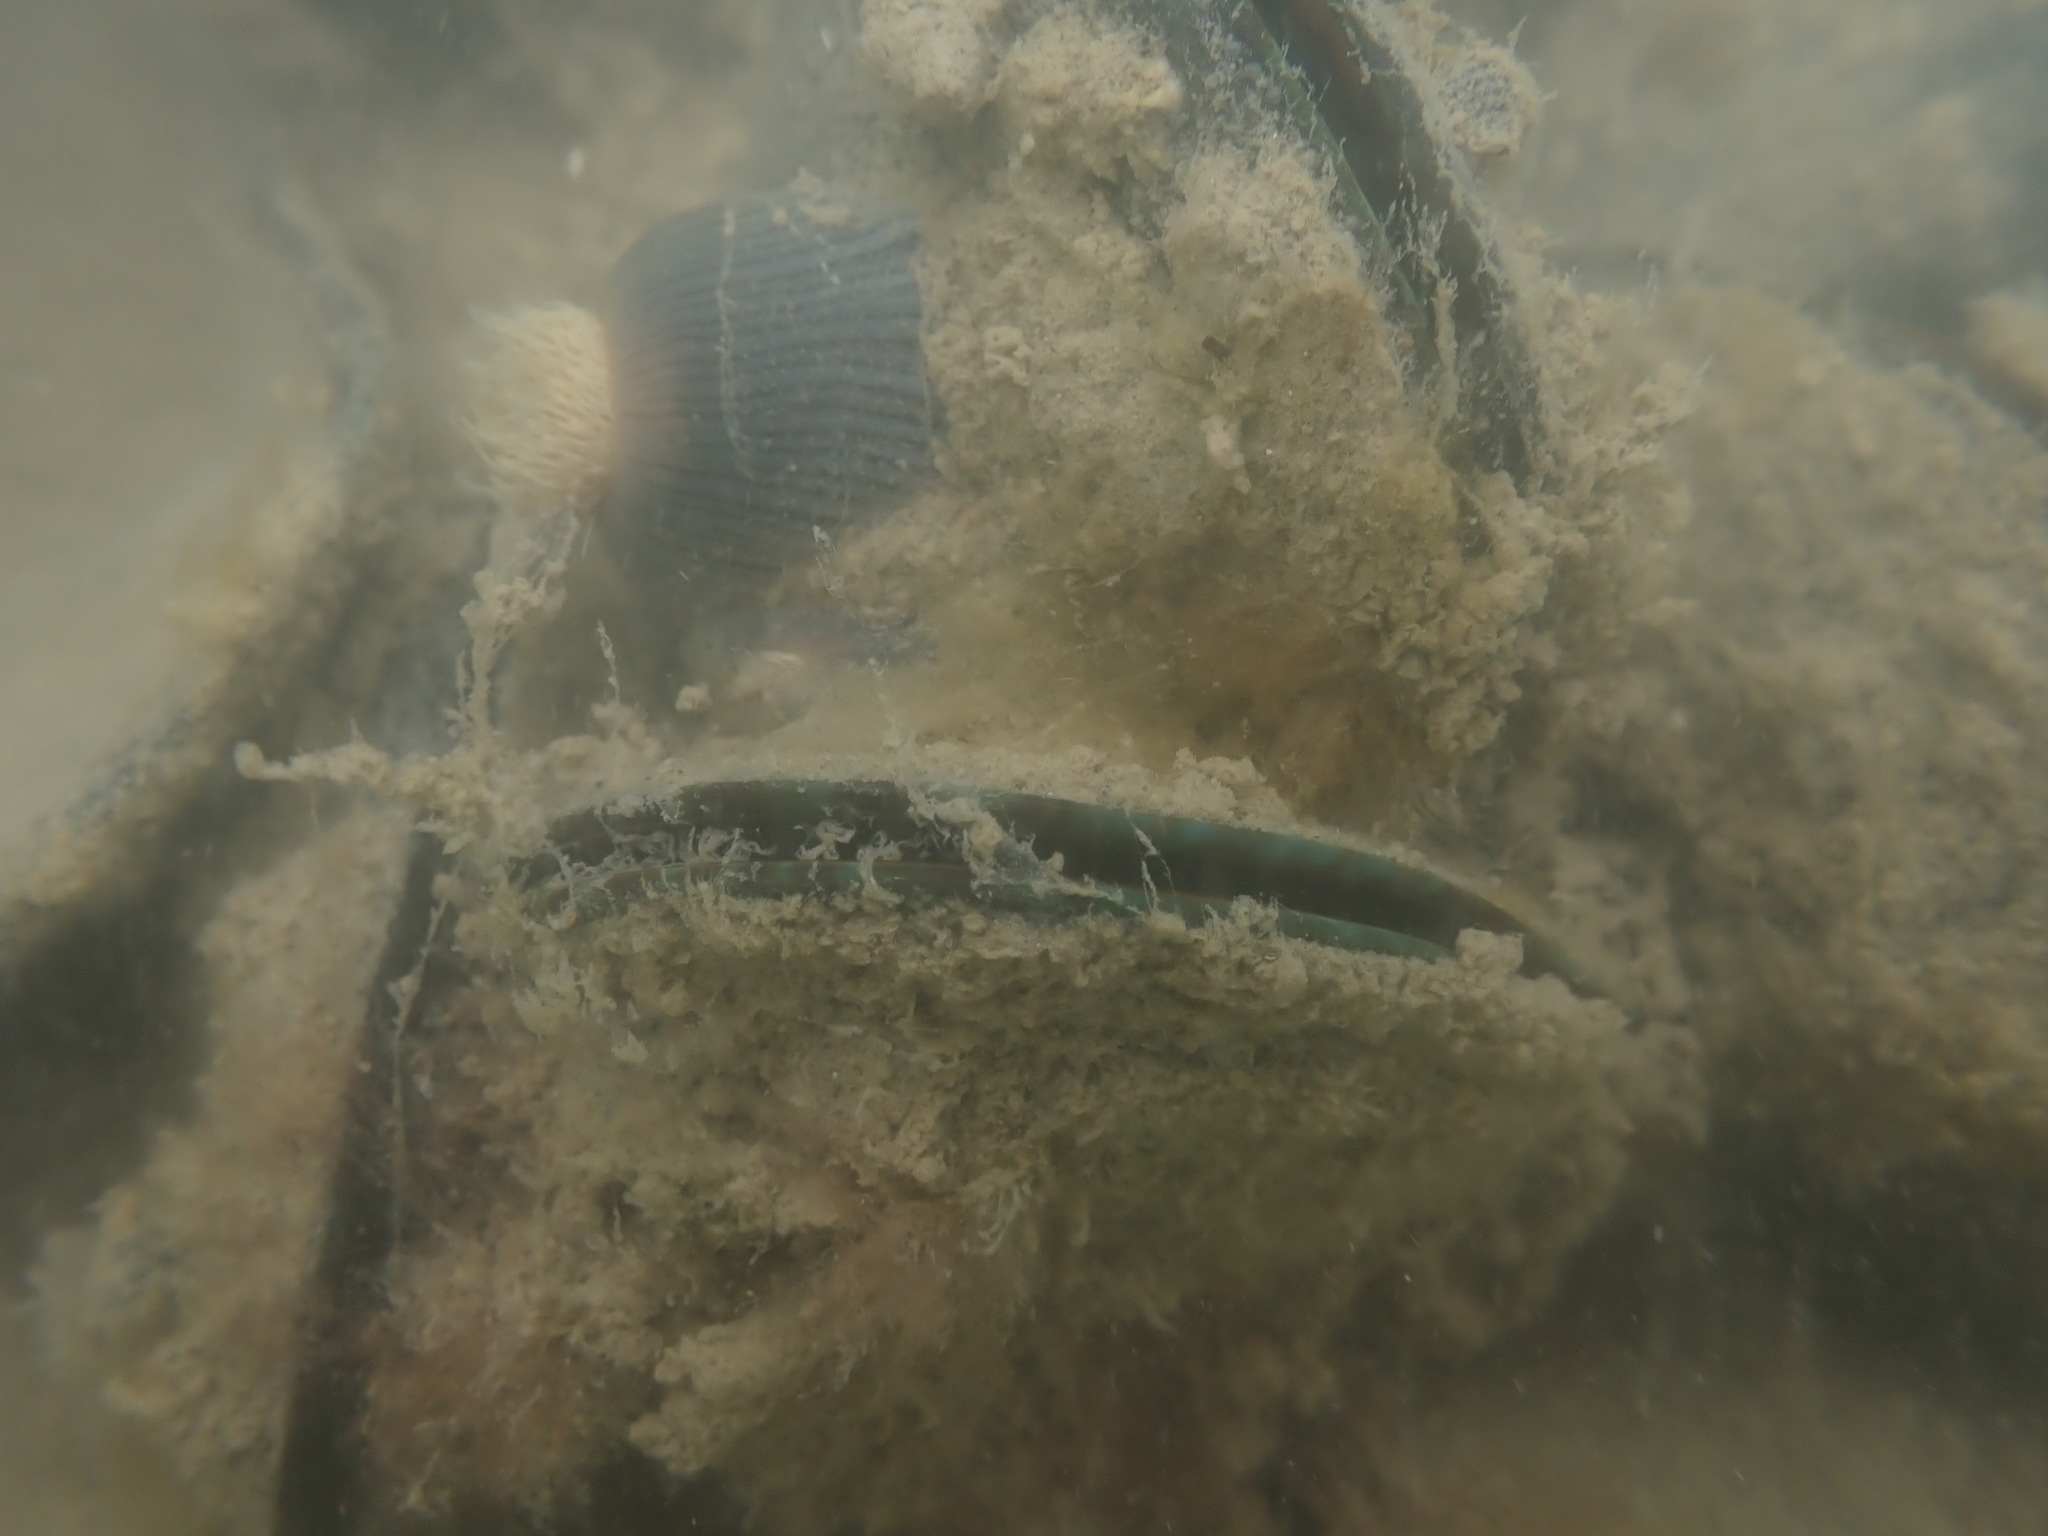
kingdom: Animalia
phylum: Mollusca
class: Bivalvia
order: Mytilida
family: Mytilidae
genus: Perna
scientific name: Perna canaliculus
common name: New zealand greenshelltm
